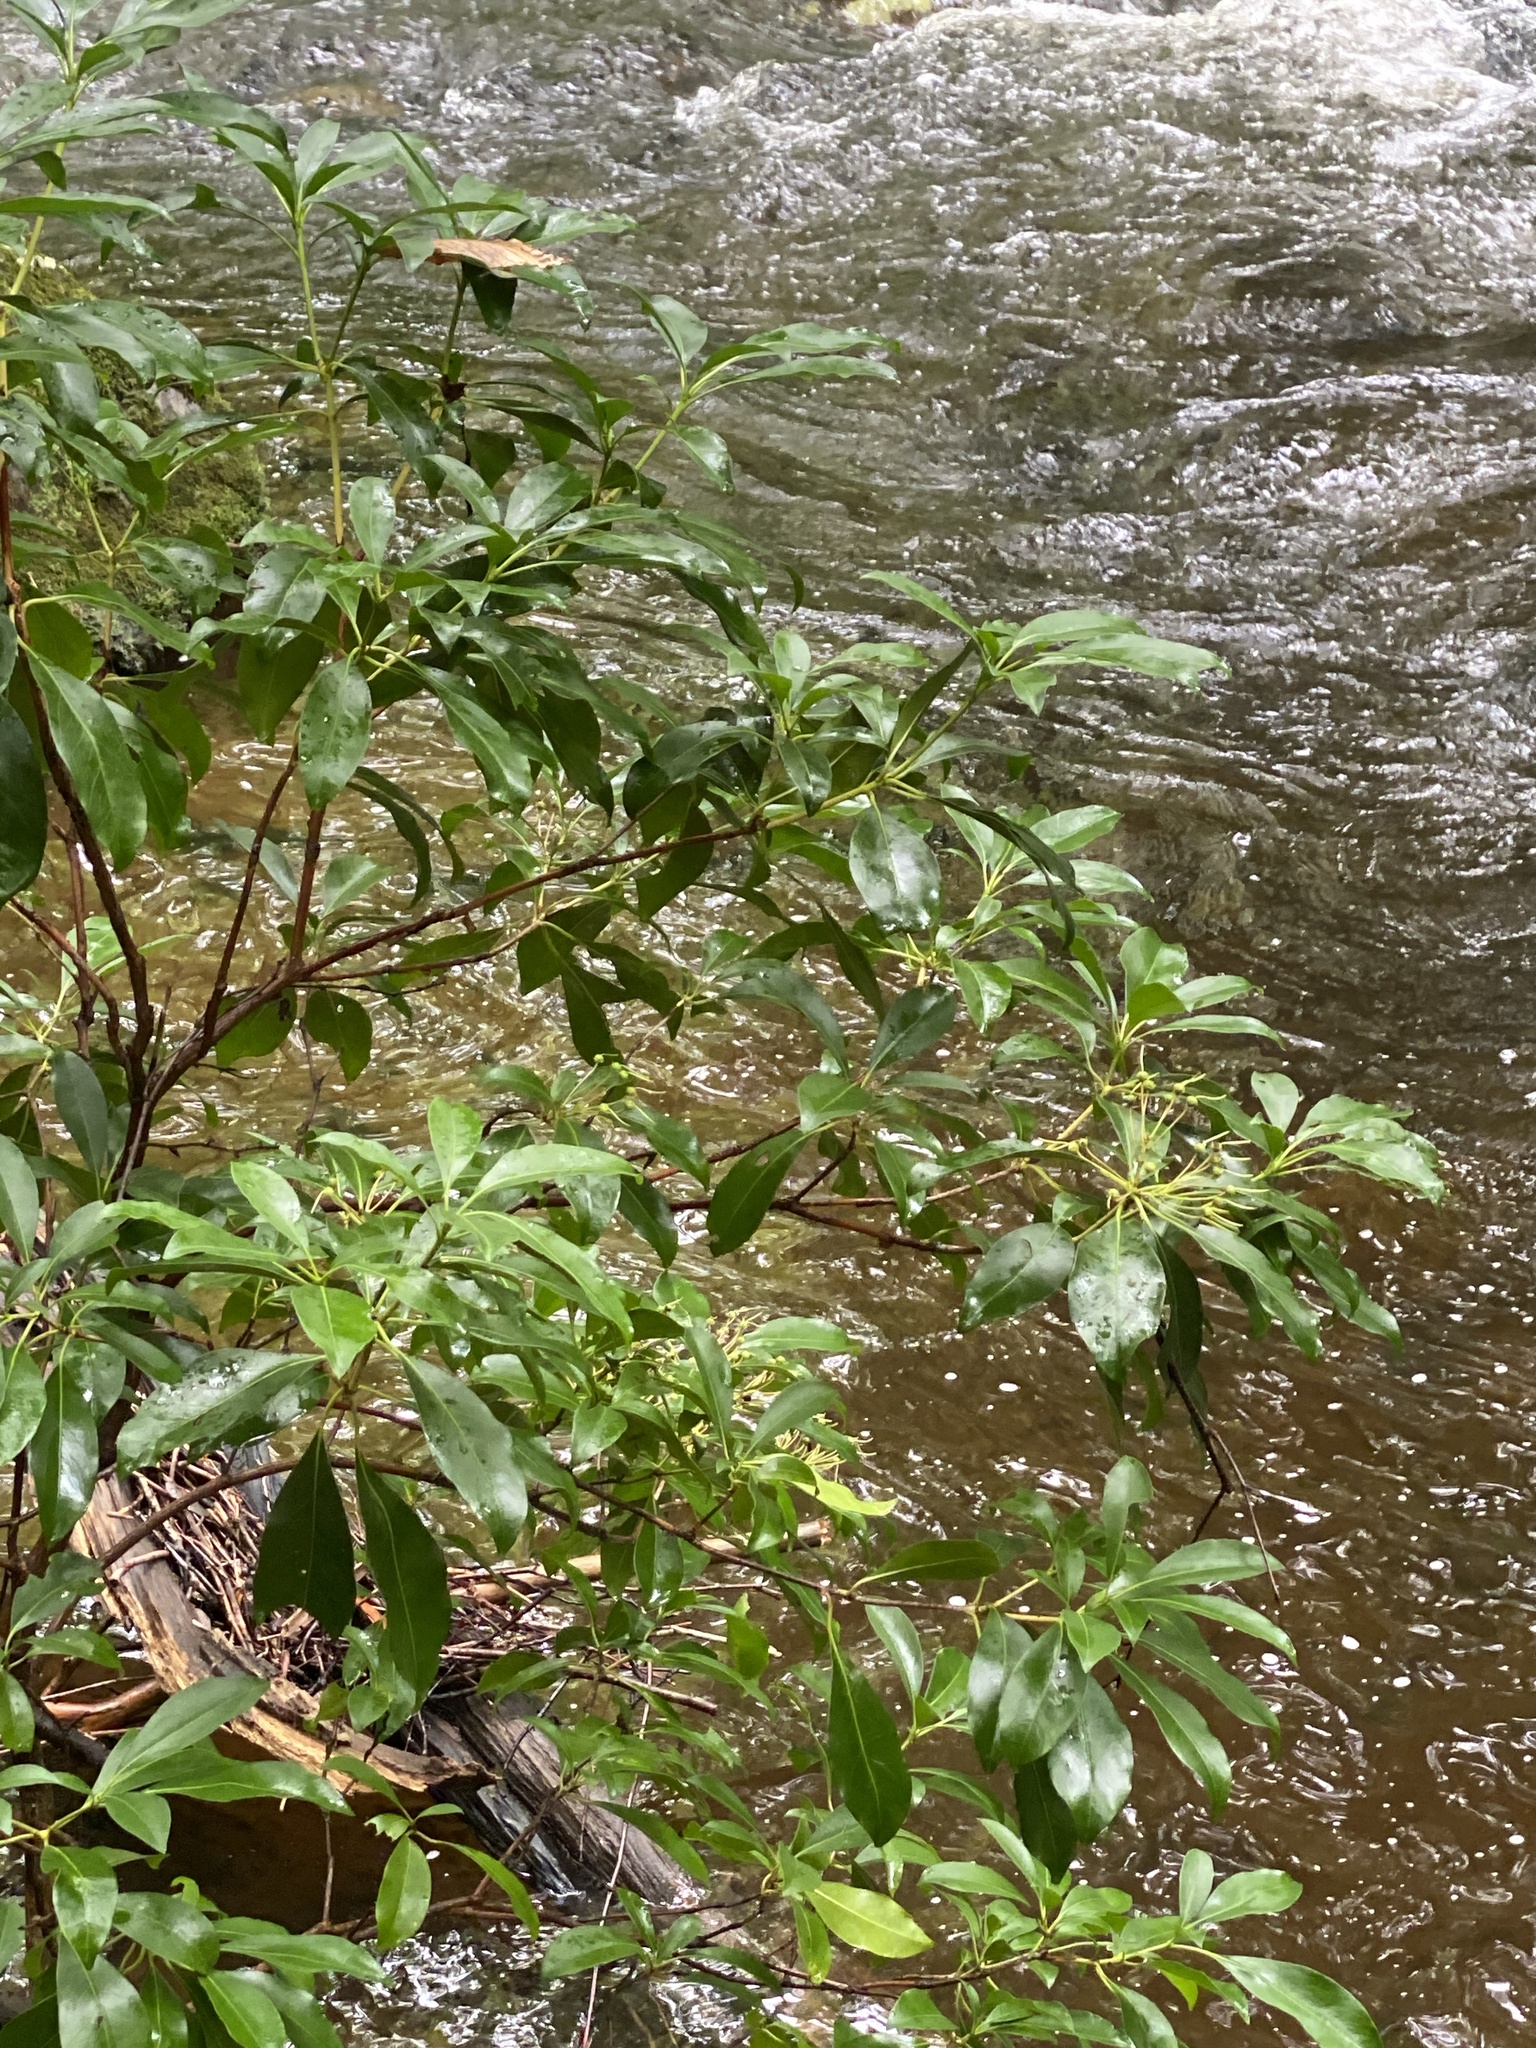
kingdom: Plantae
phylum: Tracheophyta
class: Magnoliopsida
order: Ericales
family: Ericaceae
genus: Kalmia
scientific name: Kalmia latifolia
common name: Mountain-laurel
